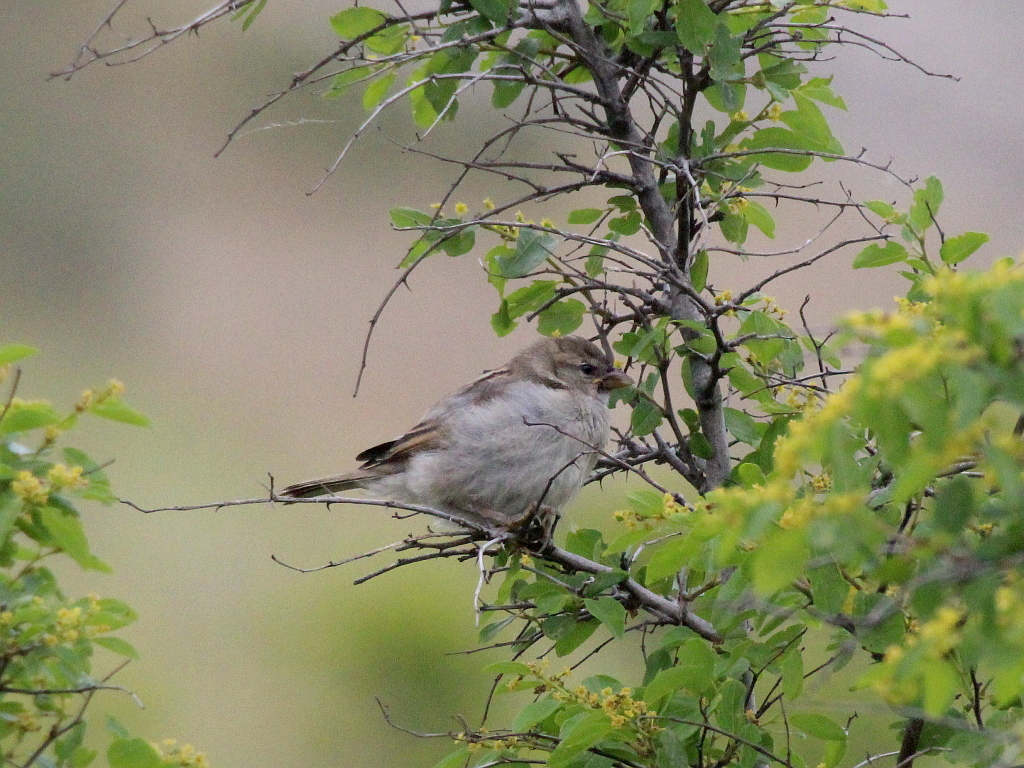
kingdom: Animalia
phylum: Chordata
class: Aves
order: Passeriformes
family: Passeridae
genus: Passer
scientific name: Passer domesticus
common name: House sparrow
